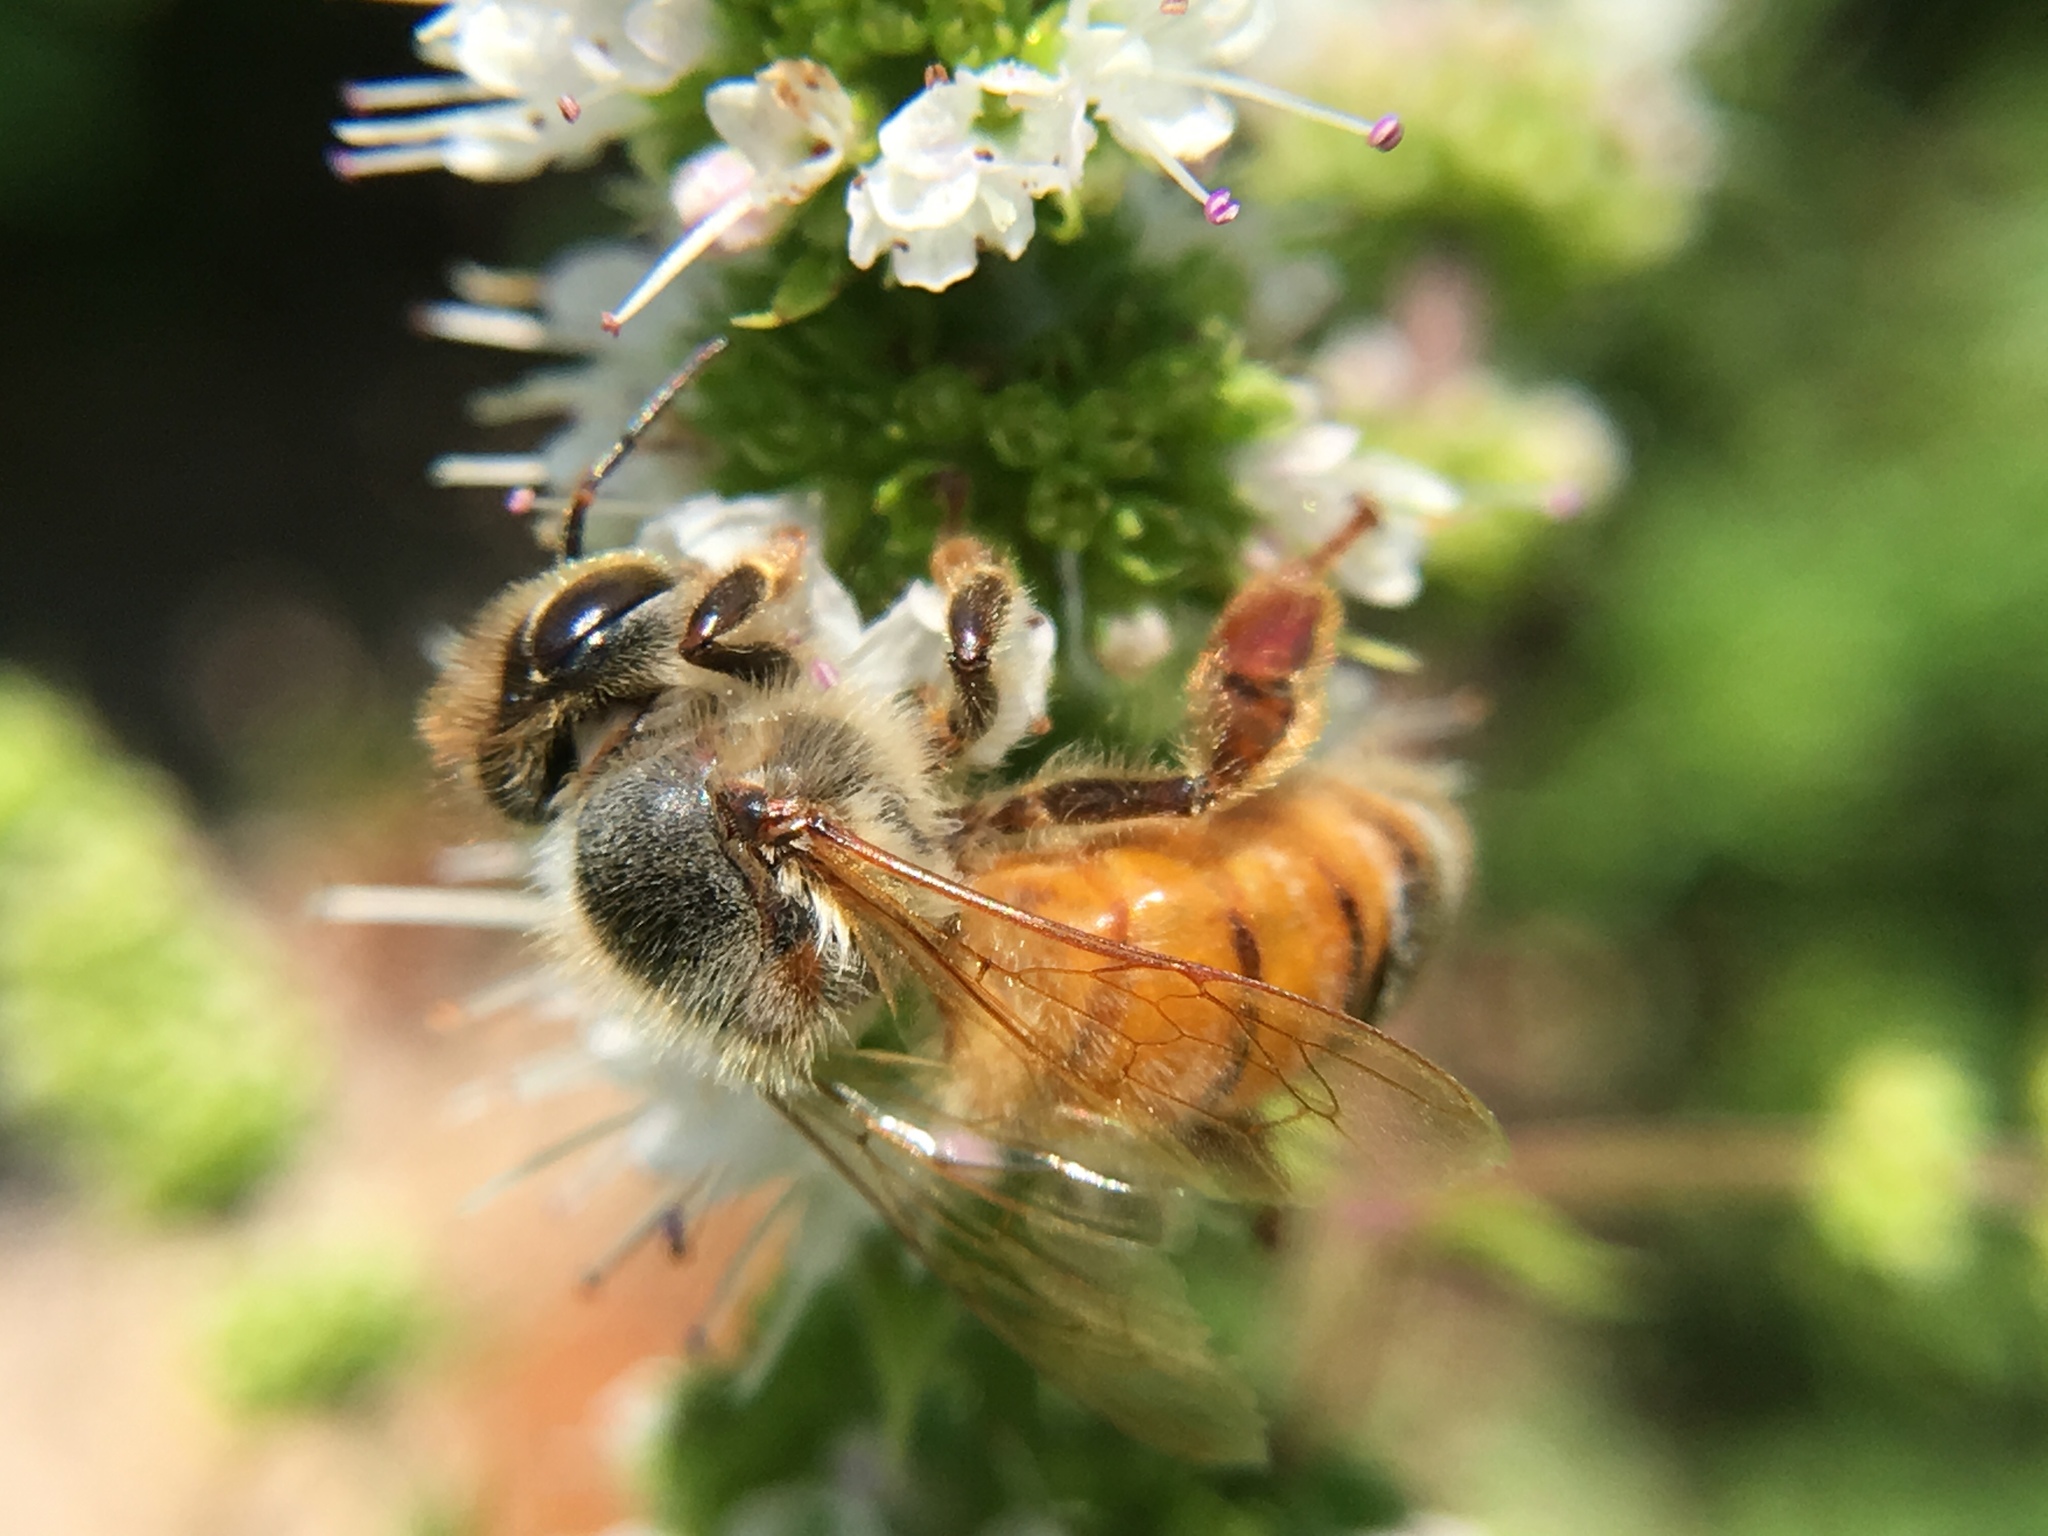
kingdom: Animalia
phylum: Arthropoda
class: Insecta
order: Hymenoptera
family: Apidae
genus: Apis
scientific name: Apis mellifera
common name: Honey bee
